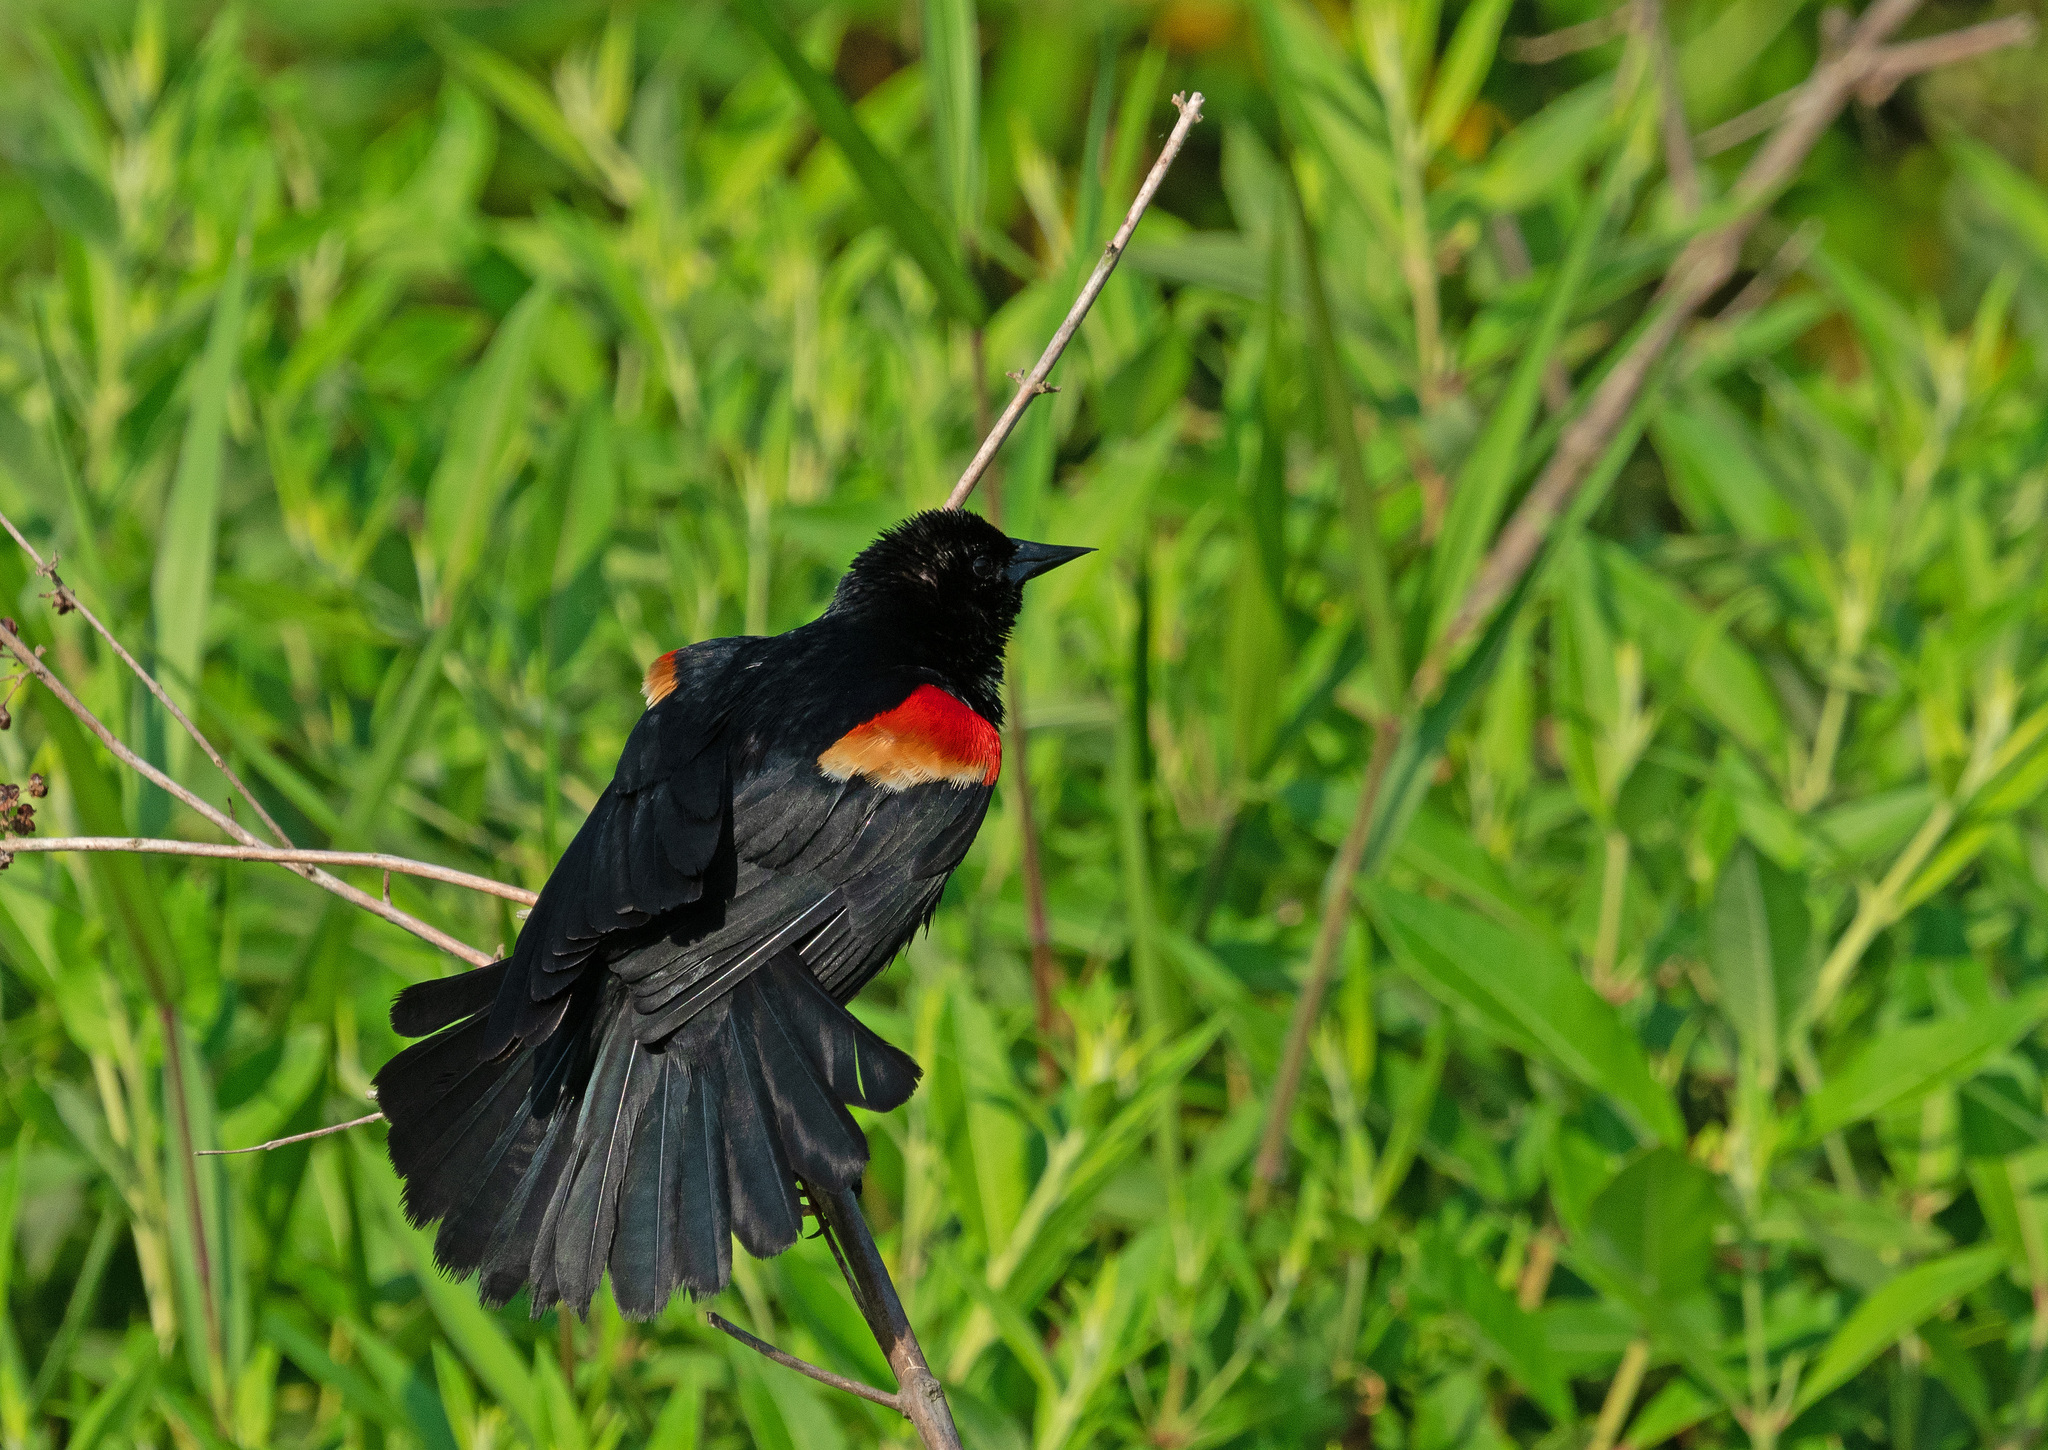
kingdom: Animalia
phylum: Chordata
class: Aves
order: Passeriformes
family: Icteridae
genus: Agelaius
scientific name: Agelaius phoeniceus
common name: Red-winged blackbird
